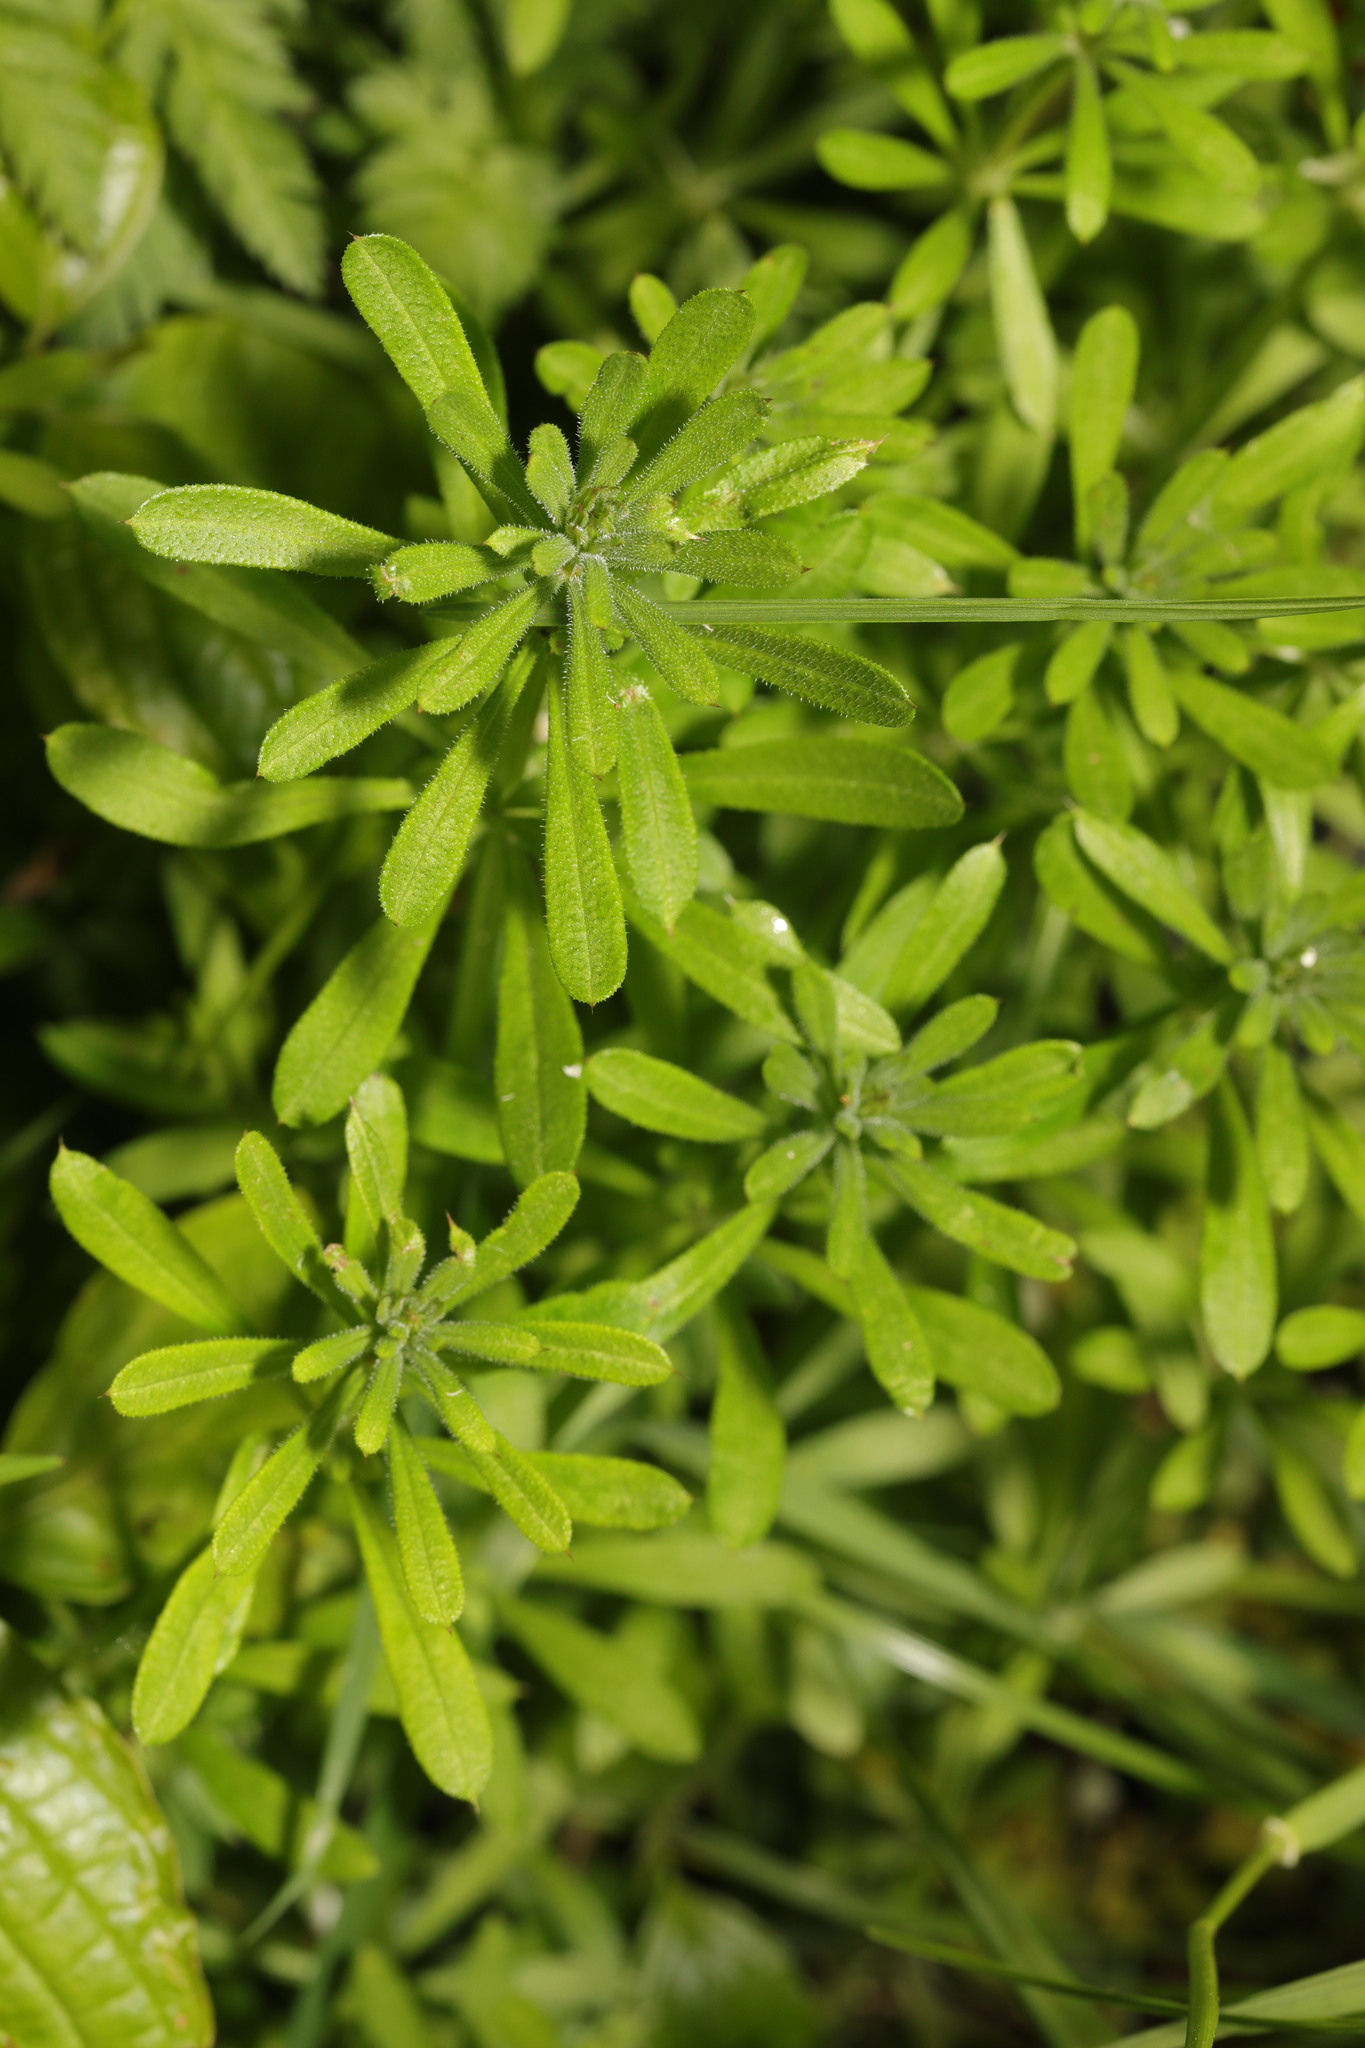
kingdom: Plantae
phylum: Tracheophyta
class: Magnoliopsida
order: Gentianales
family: Rubiaceae
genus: Galium
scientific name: Galium aparine
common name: Cleavers
